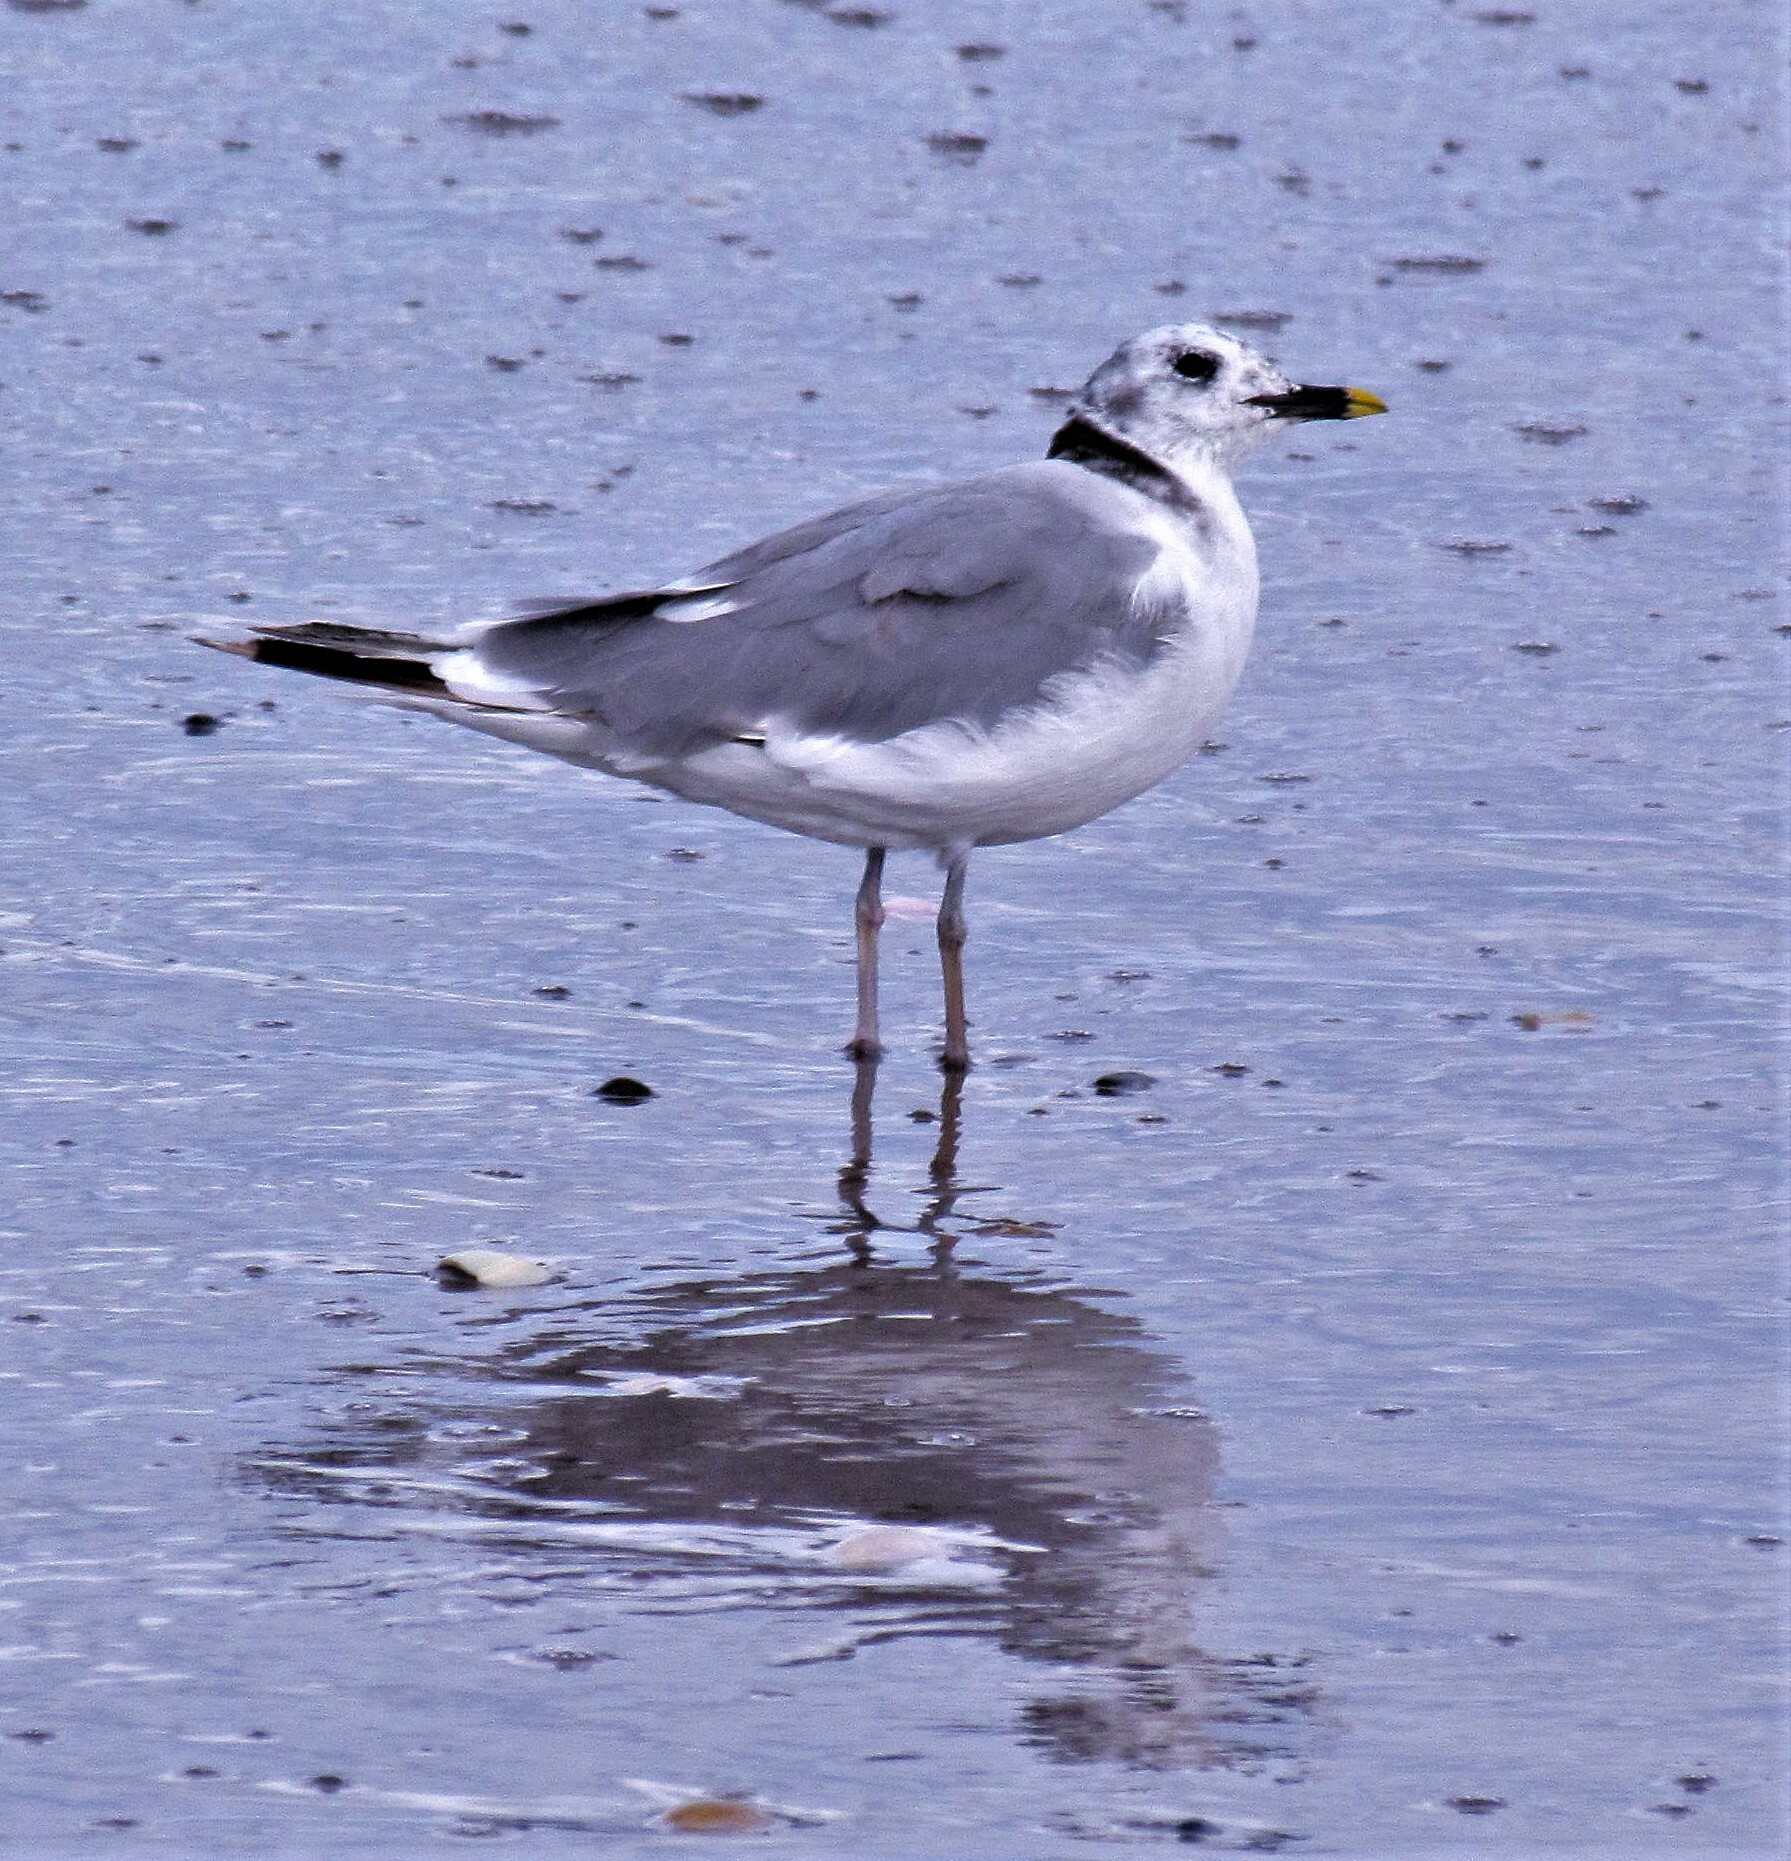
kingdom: Animalia
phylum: Chordata
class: Aves
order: Charadriiformes
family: Laridae
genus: Xema
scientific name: Xema sabini
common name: Sabine's gull
